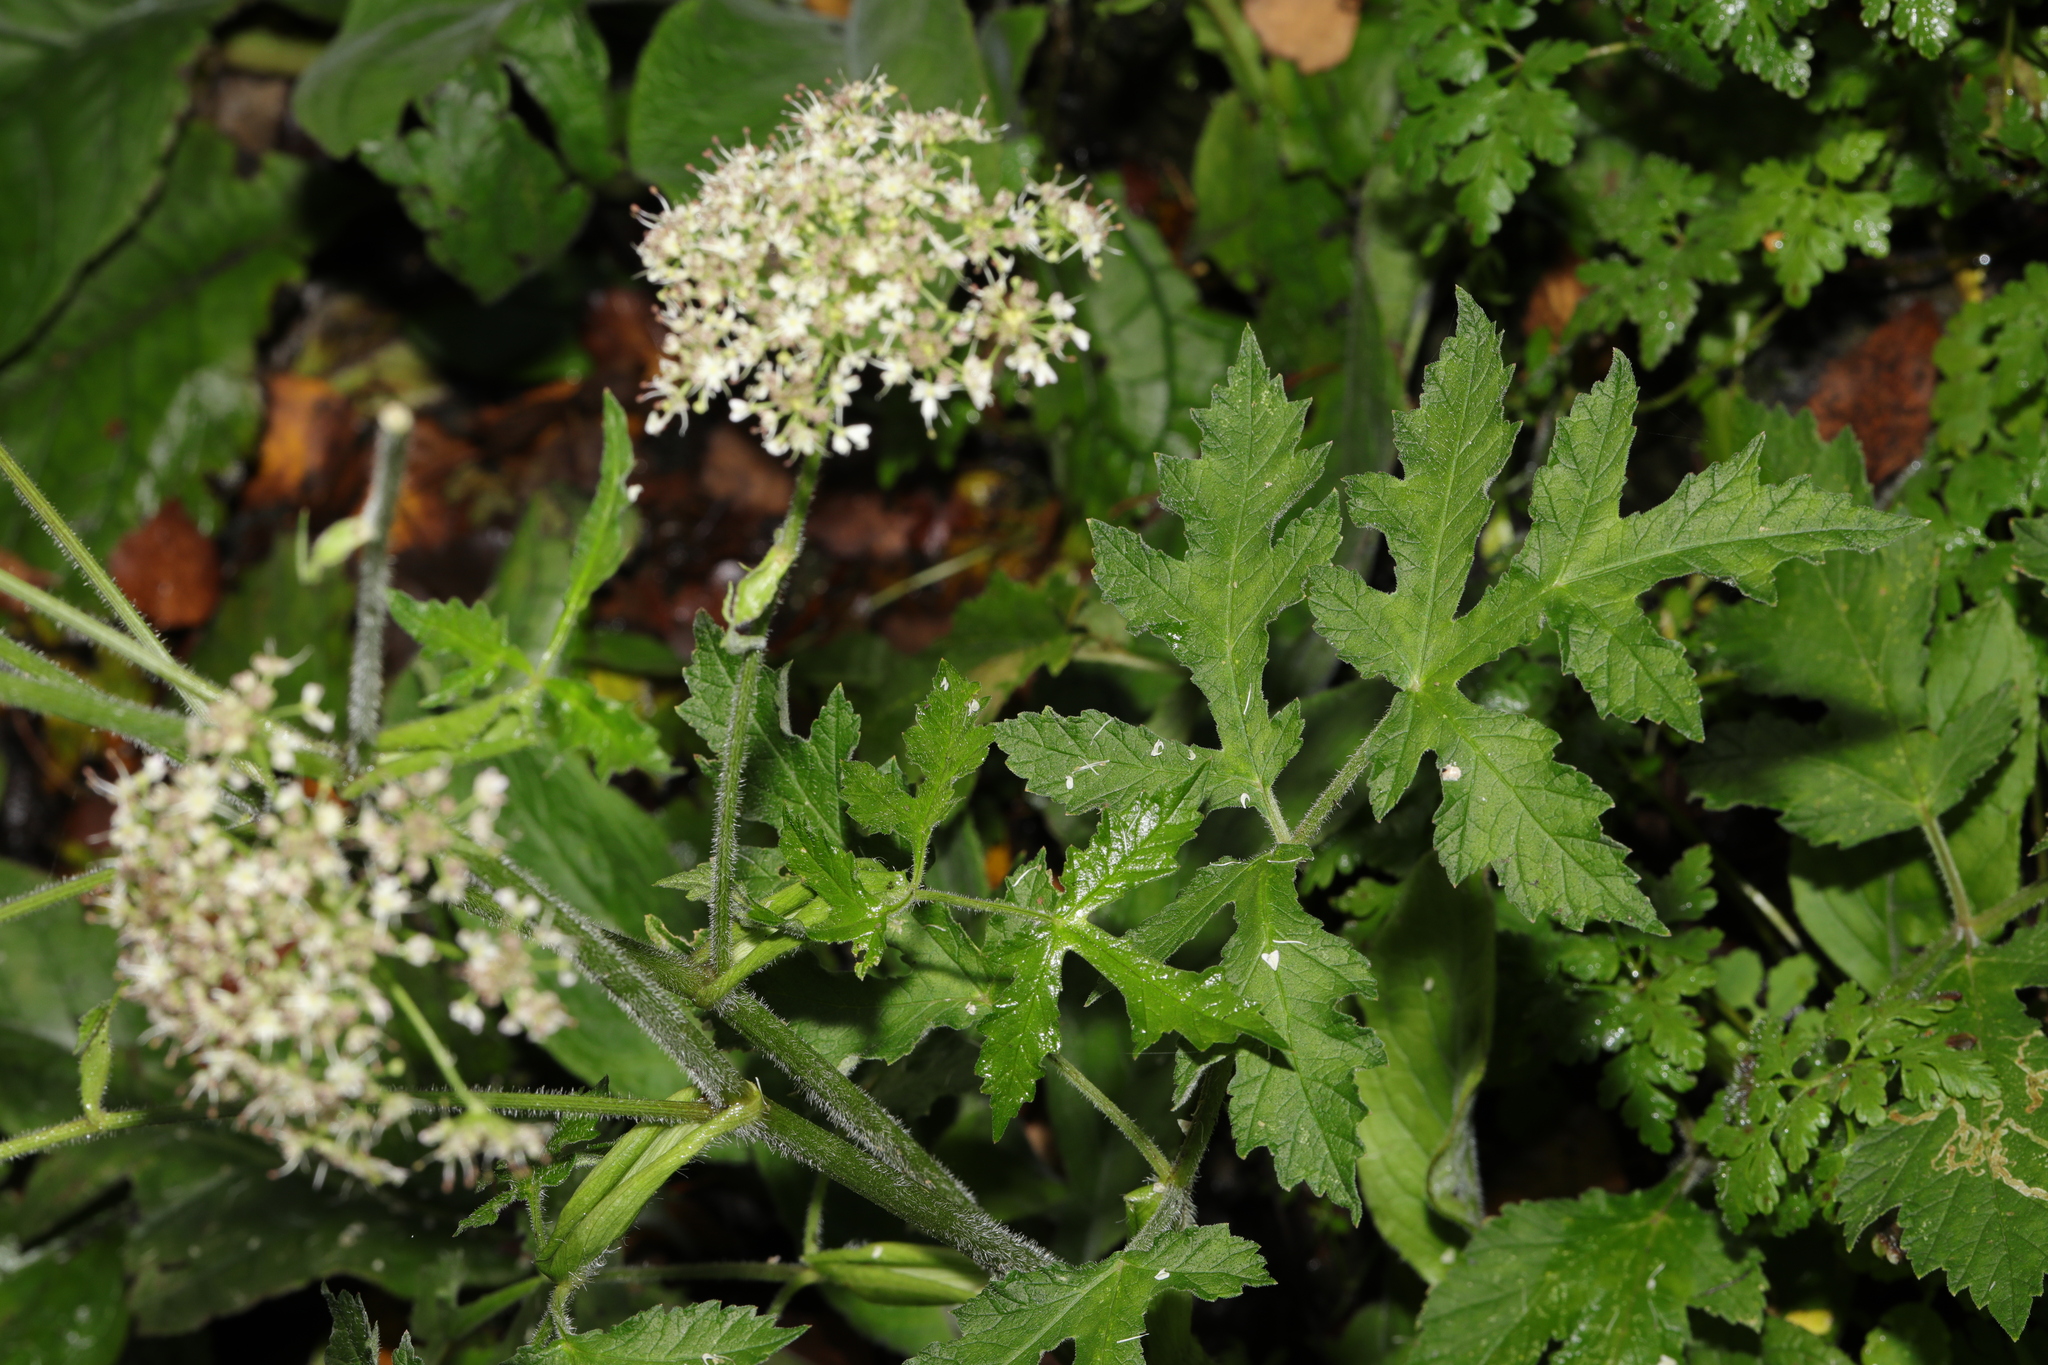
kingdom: Plantae
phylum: Tracheophyta
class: Magnoliopsida
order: Apiales
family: Apiaceae
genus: Heracleum
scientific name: Heracleum sphondylium
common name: Hogweed
